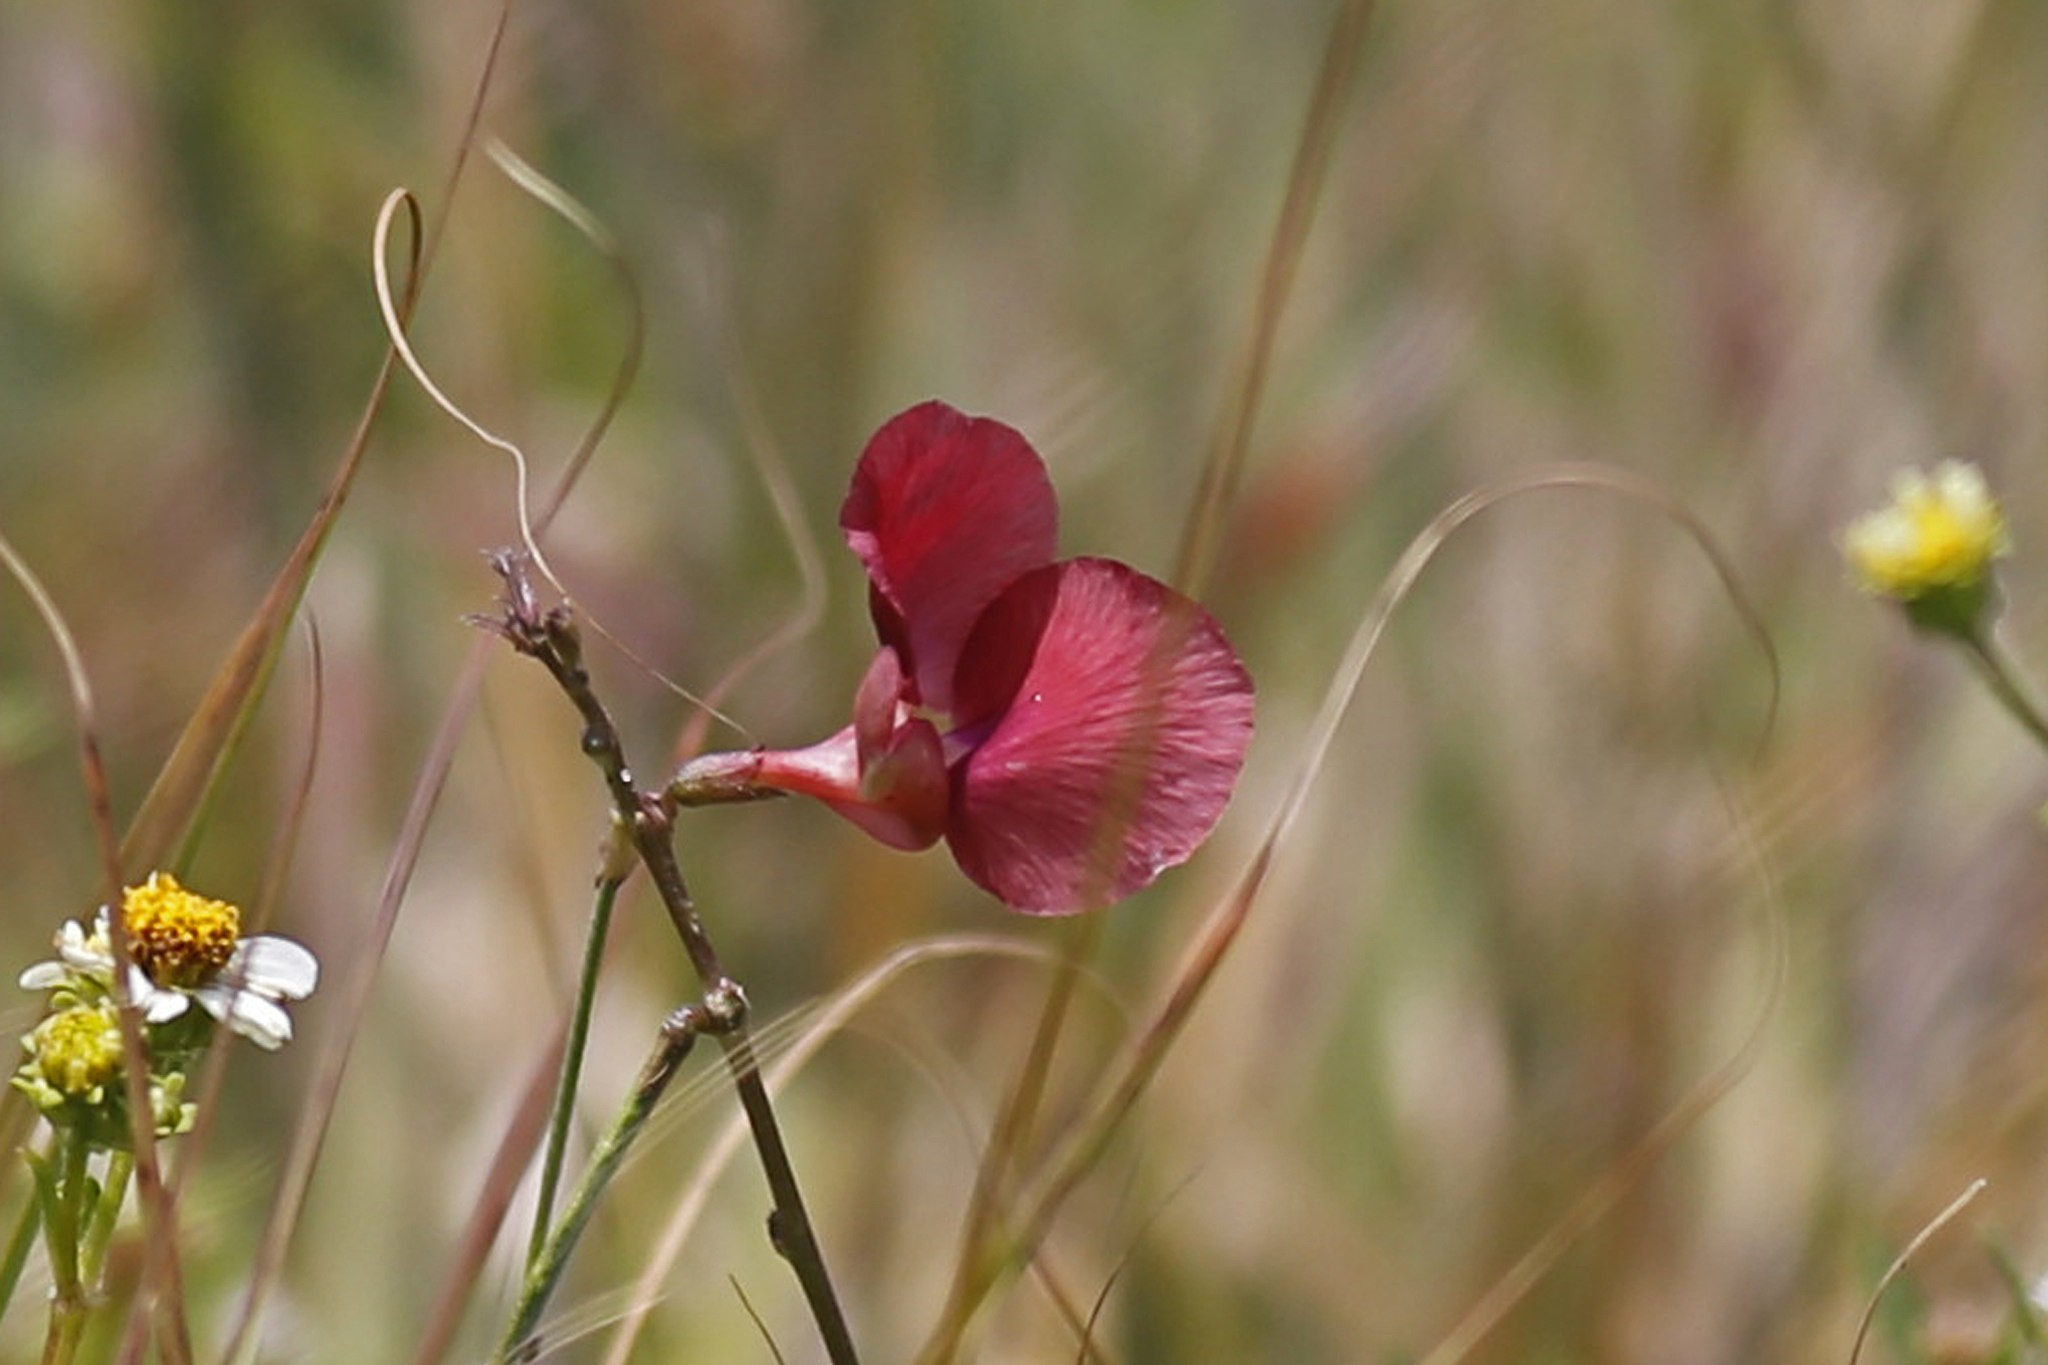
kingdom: Plantae
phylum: Tracheophyta
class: Magnoliopsida
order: Fabales
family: Fabaceae
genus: Macroptilium
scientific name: Macroptilium lathyroides
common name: Wild bushbean
